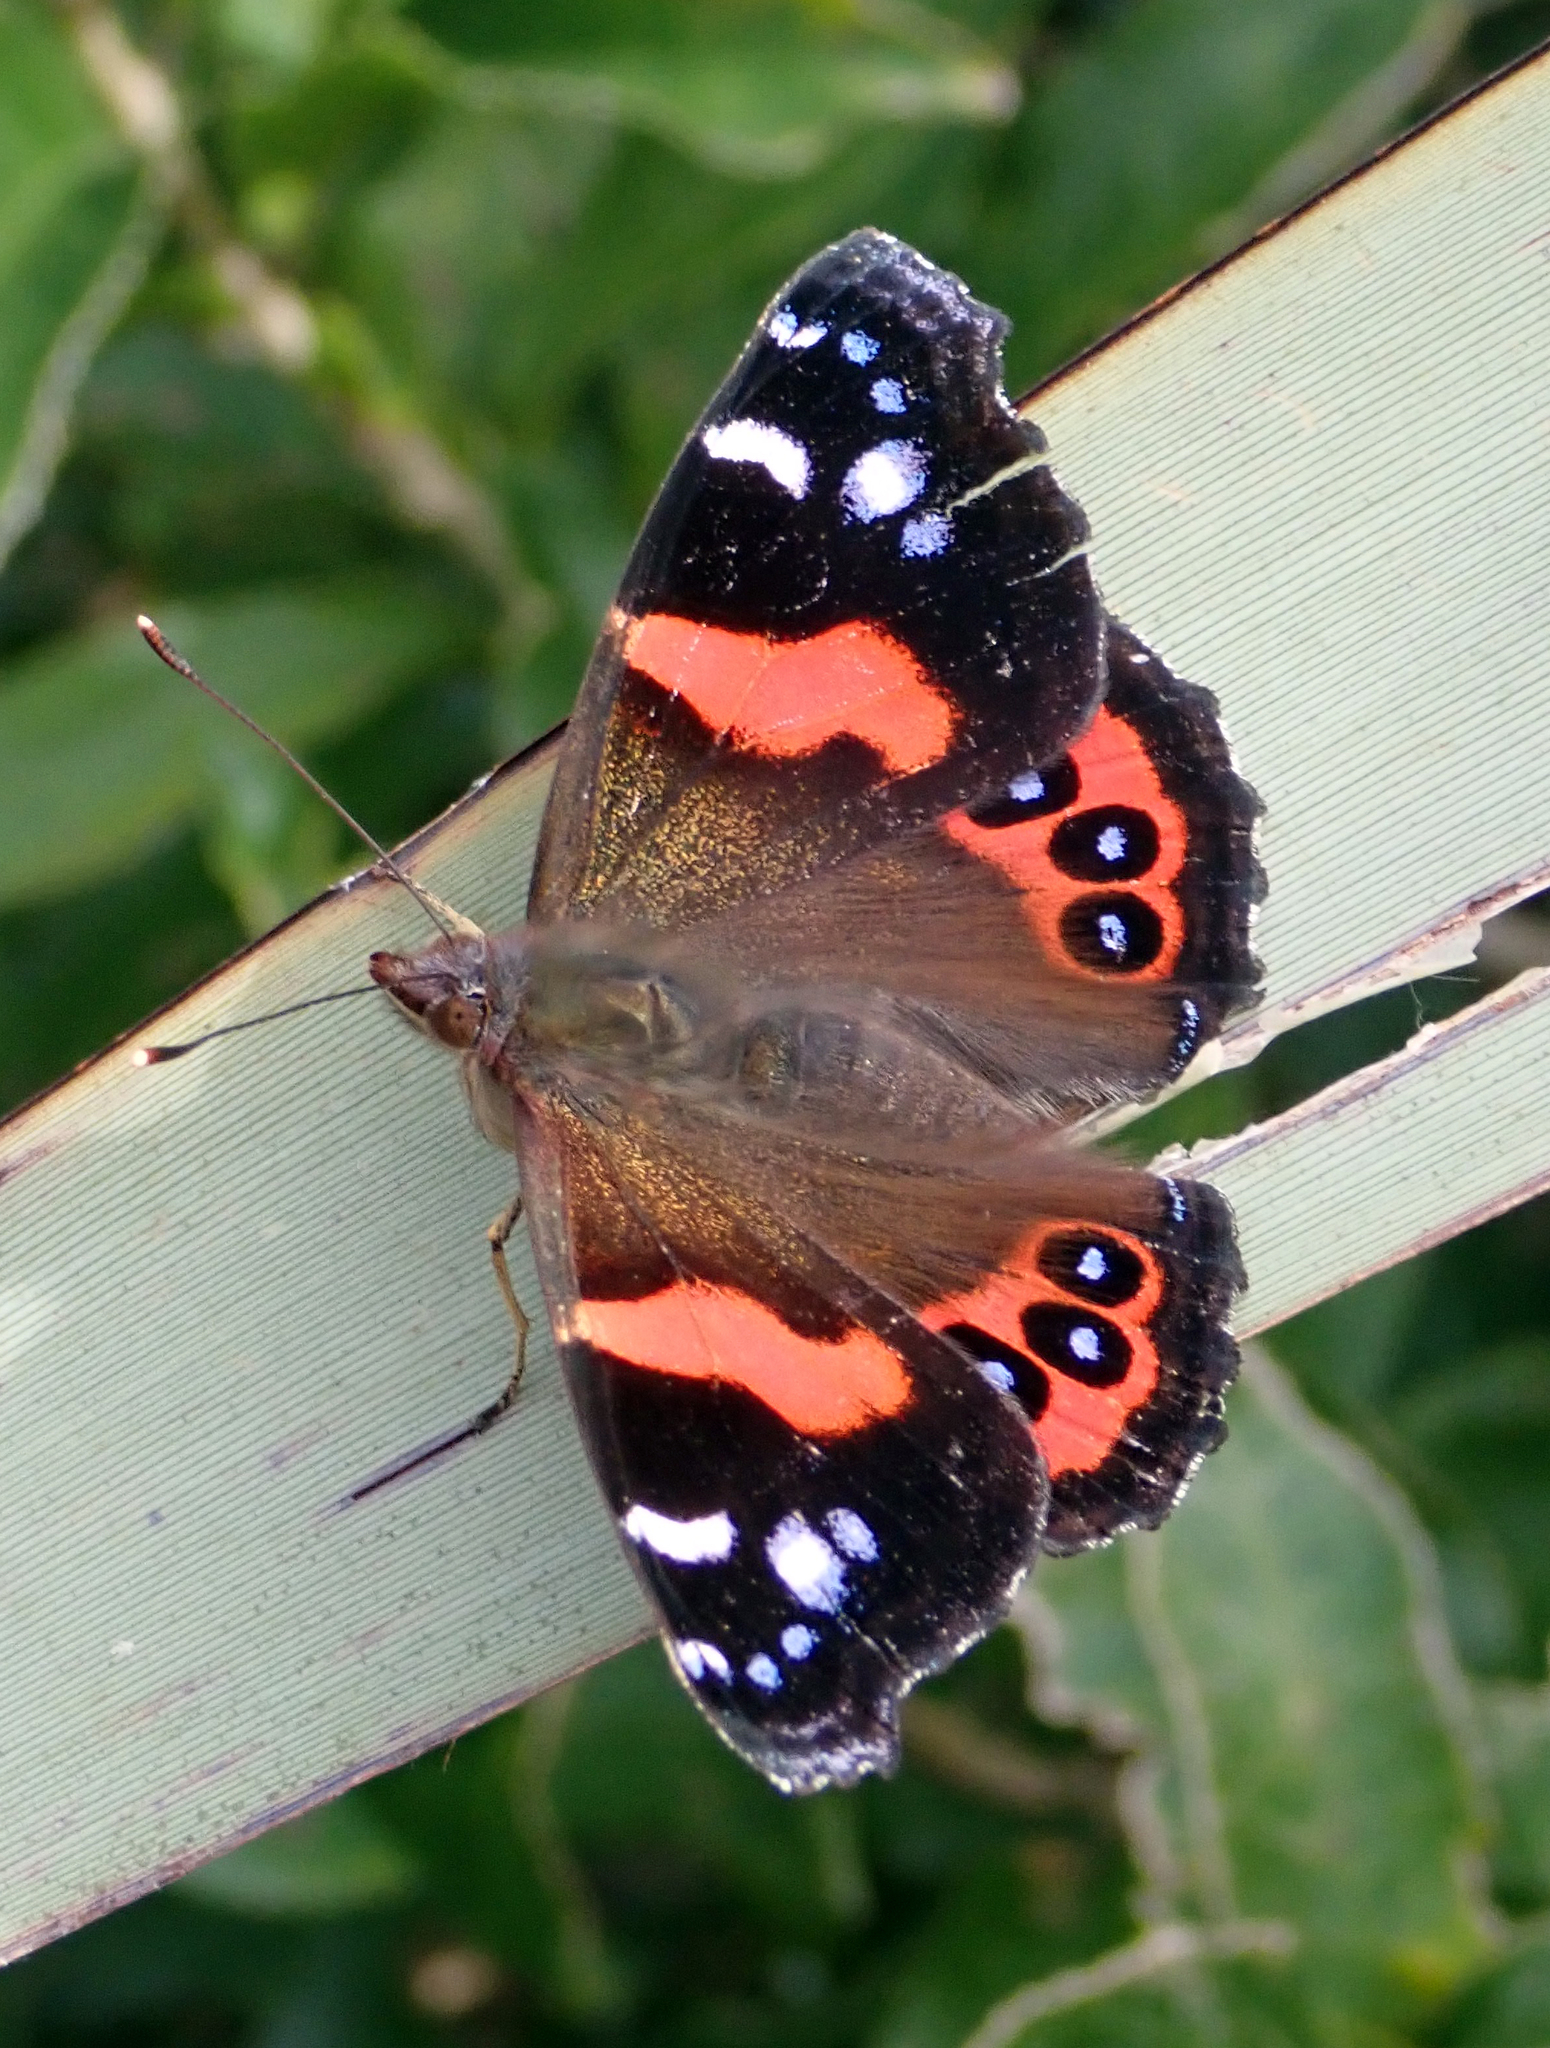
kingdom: Animalia
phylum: Arthropoda
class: Insecta
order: Lepidoptera
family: Nymphalidae
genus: Vanessa
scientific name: Vanessa gonerilla
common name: New zealand red admiral
